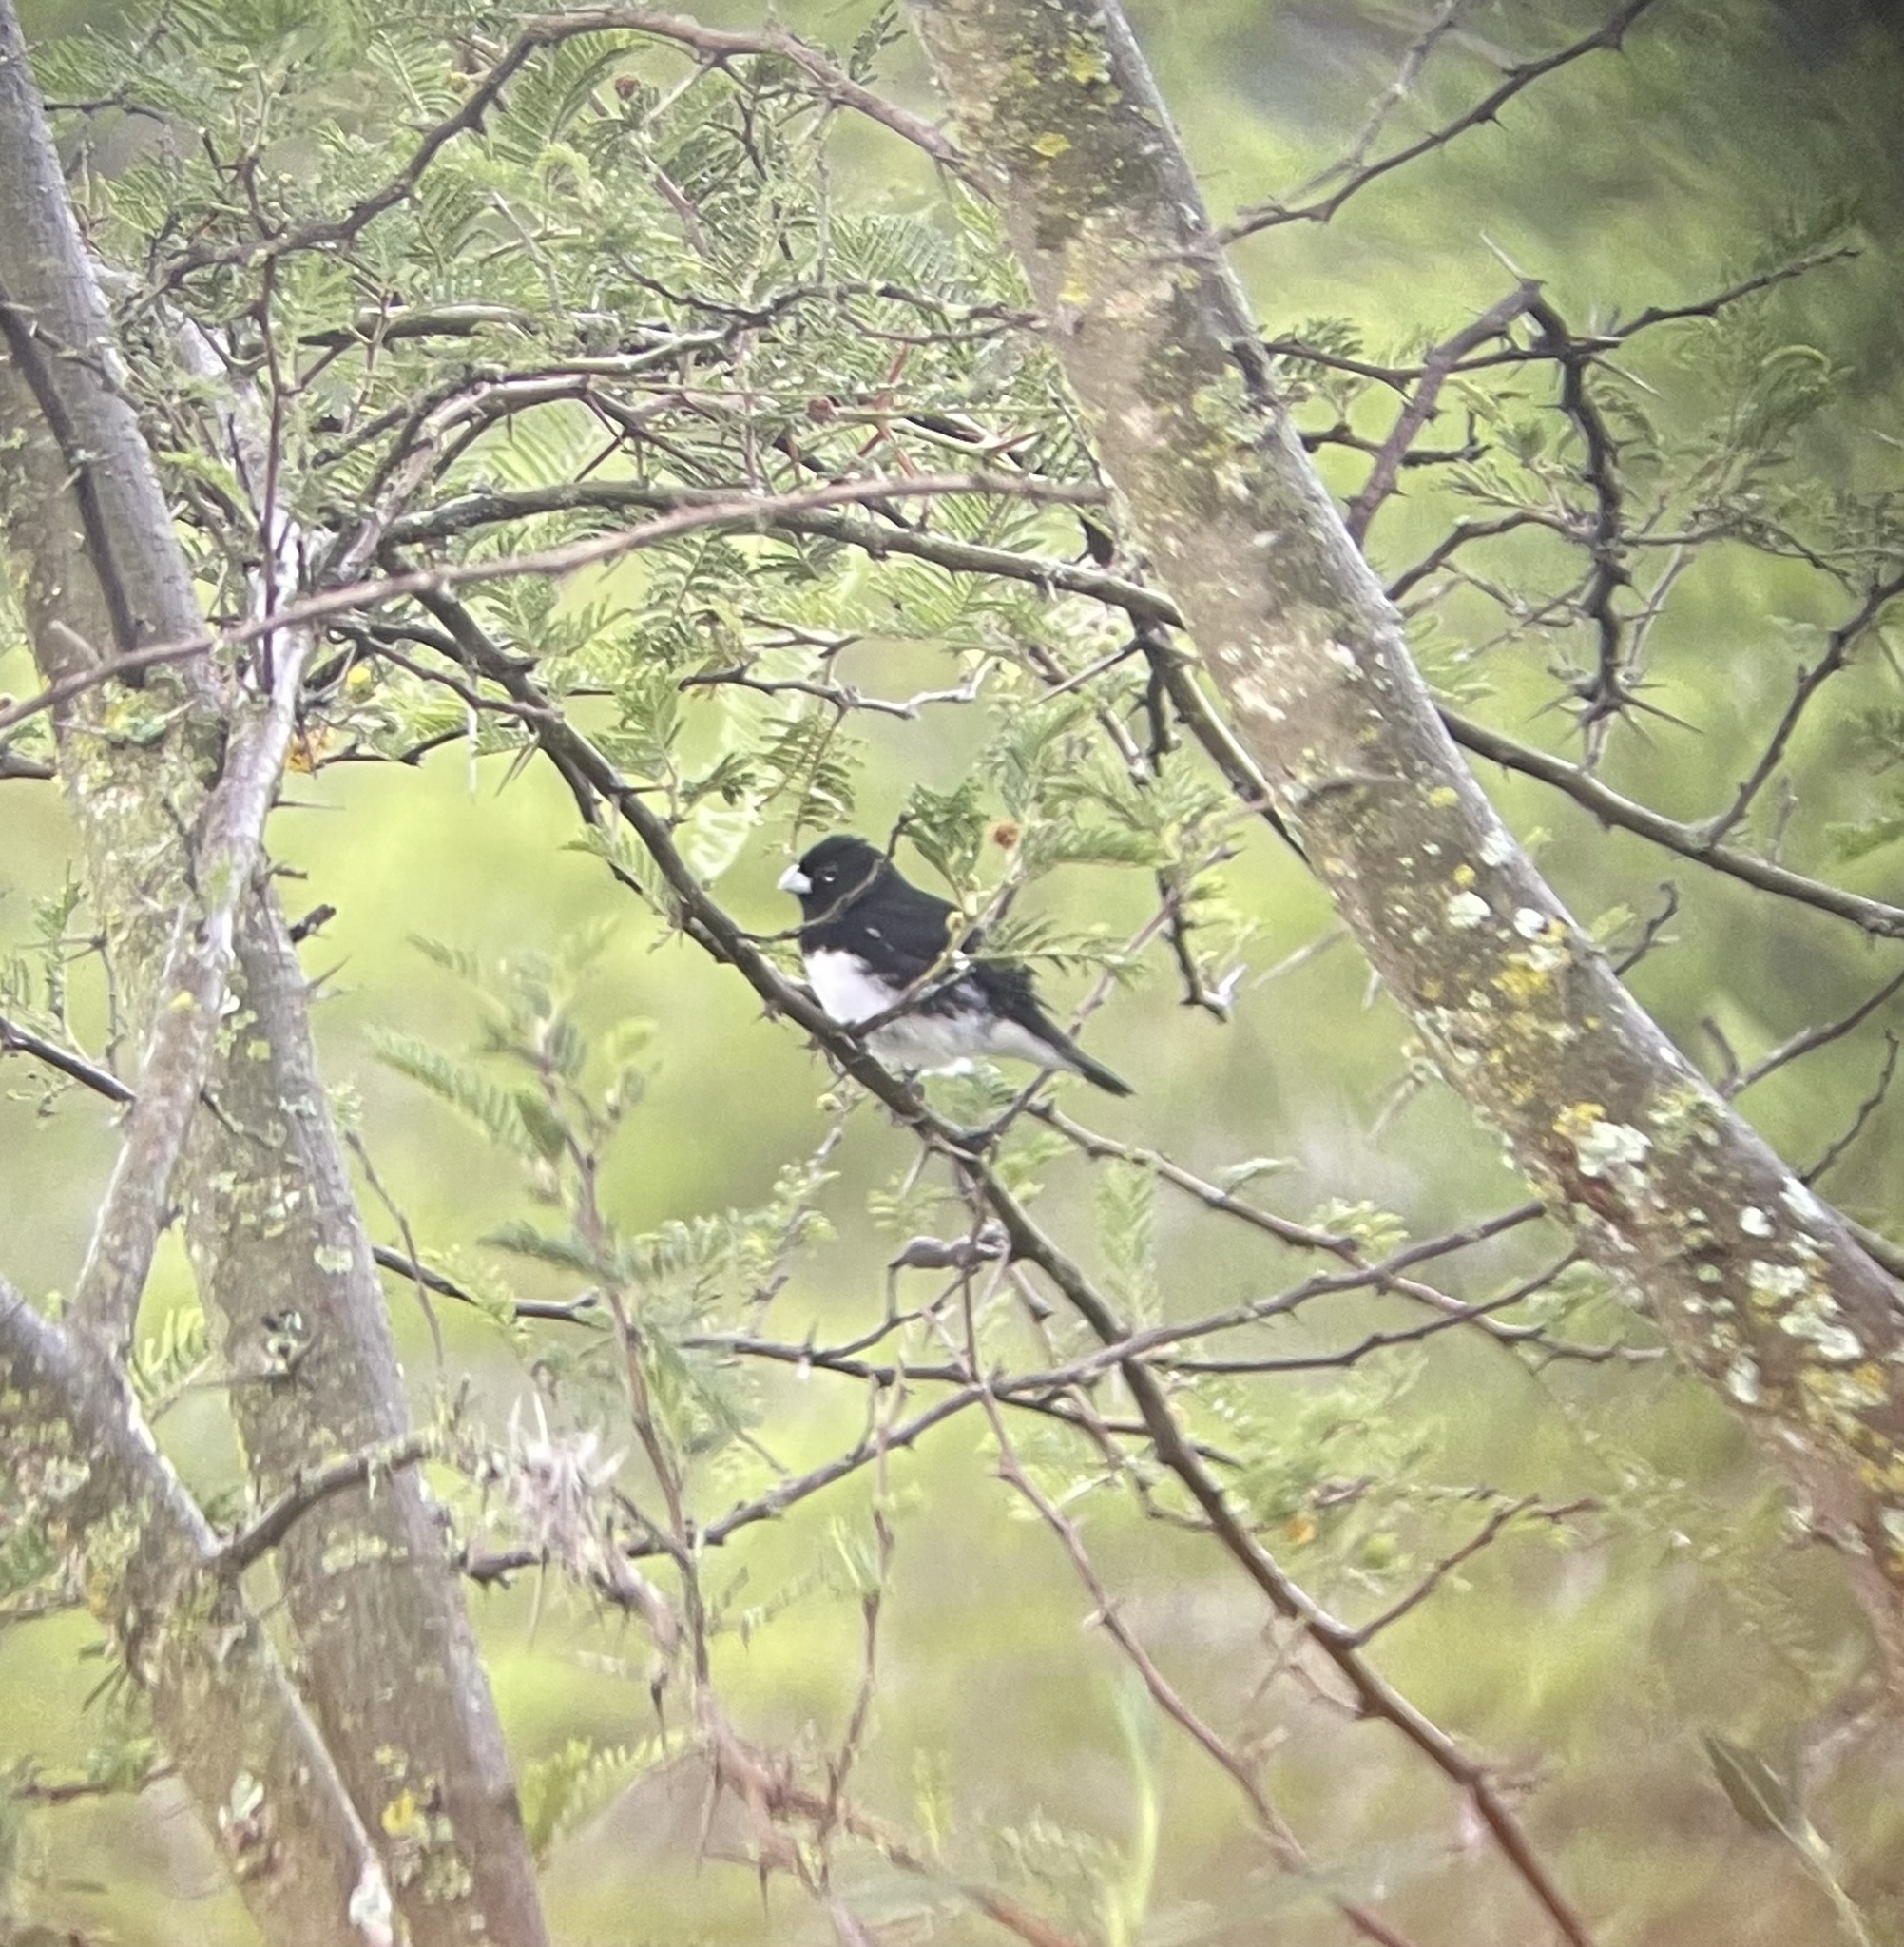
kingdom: Animalia
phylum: Chordata
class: Aves
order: Passeriformes
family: Thraupidae
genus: Sporophila
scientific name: Sporophila luctuosa
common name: Black-and-white seedeater
